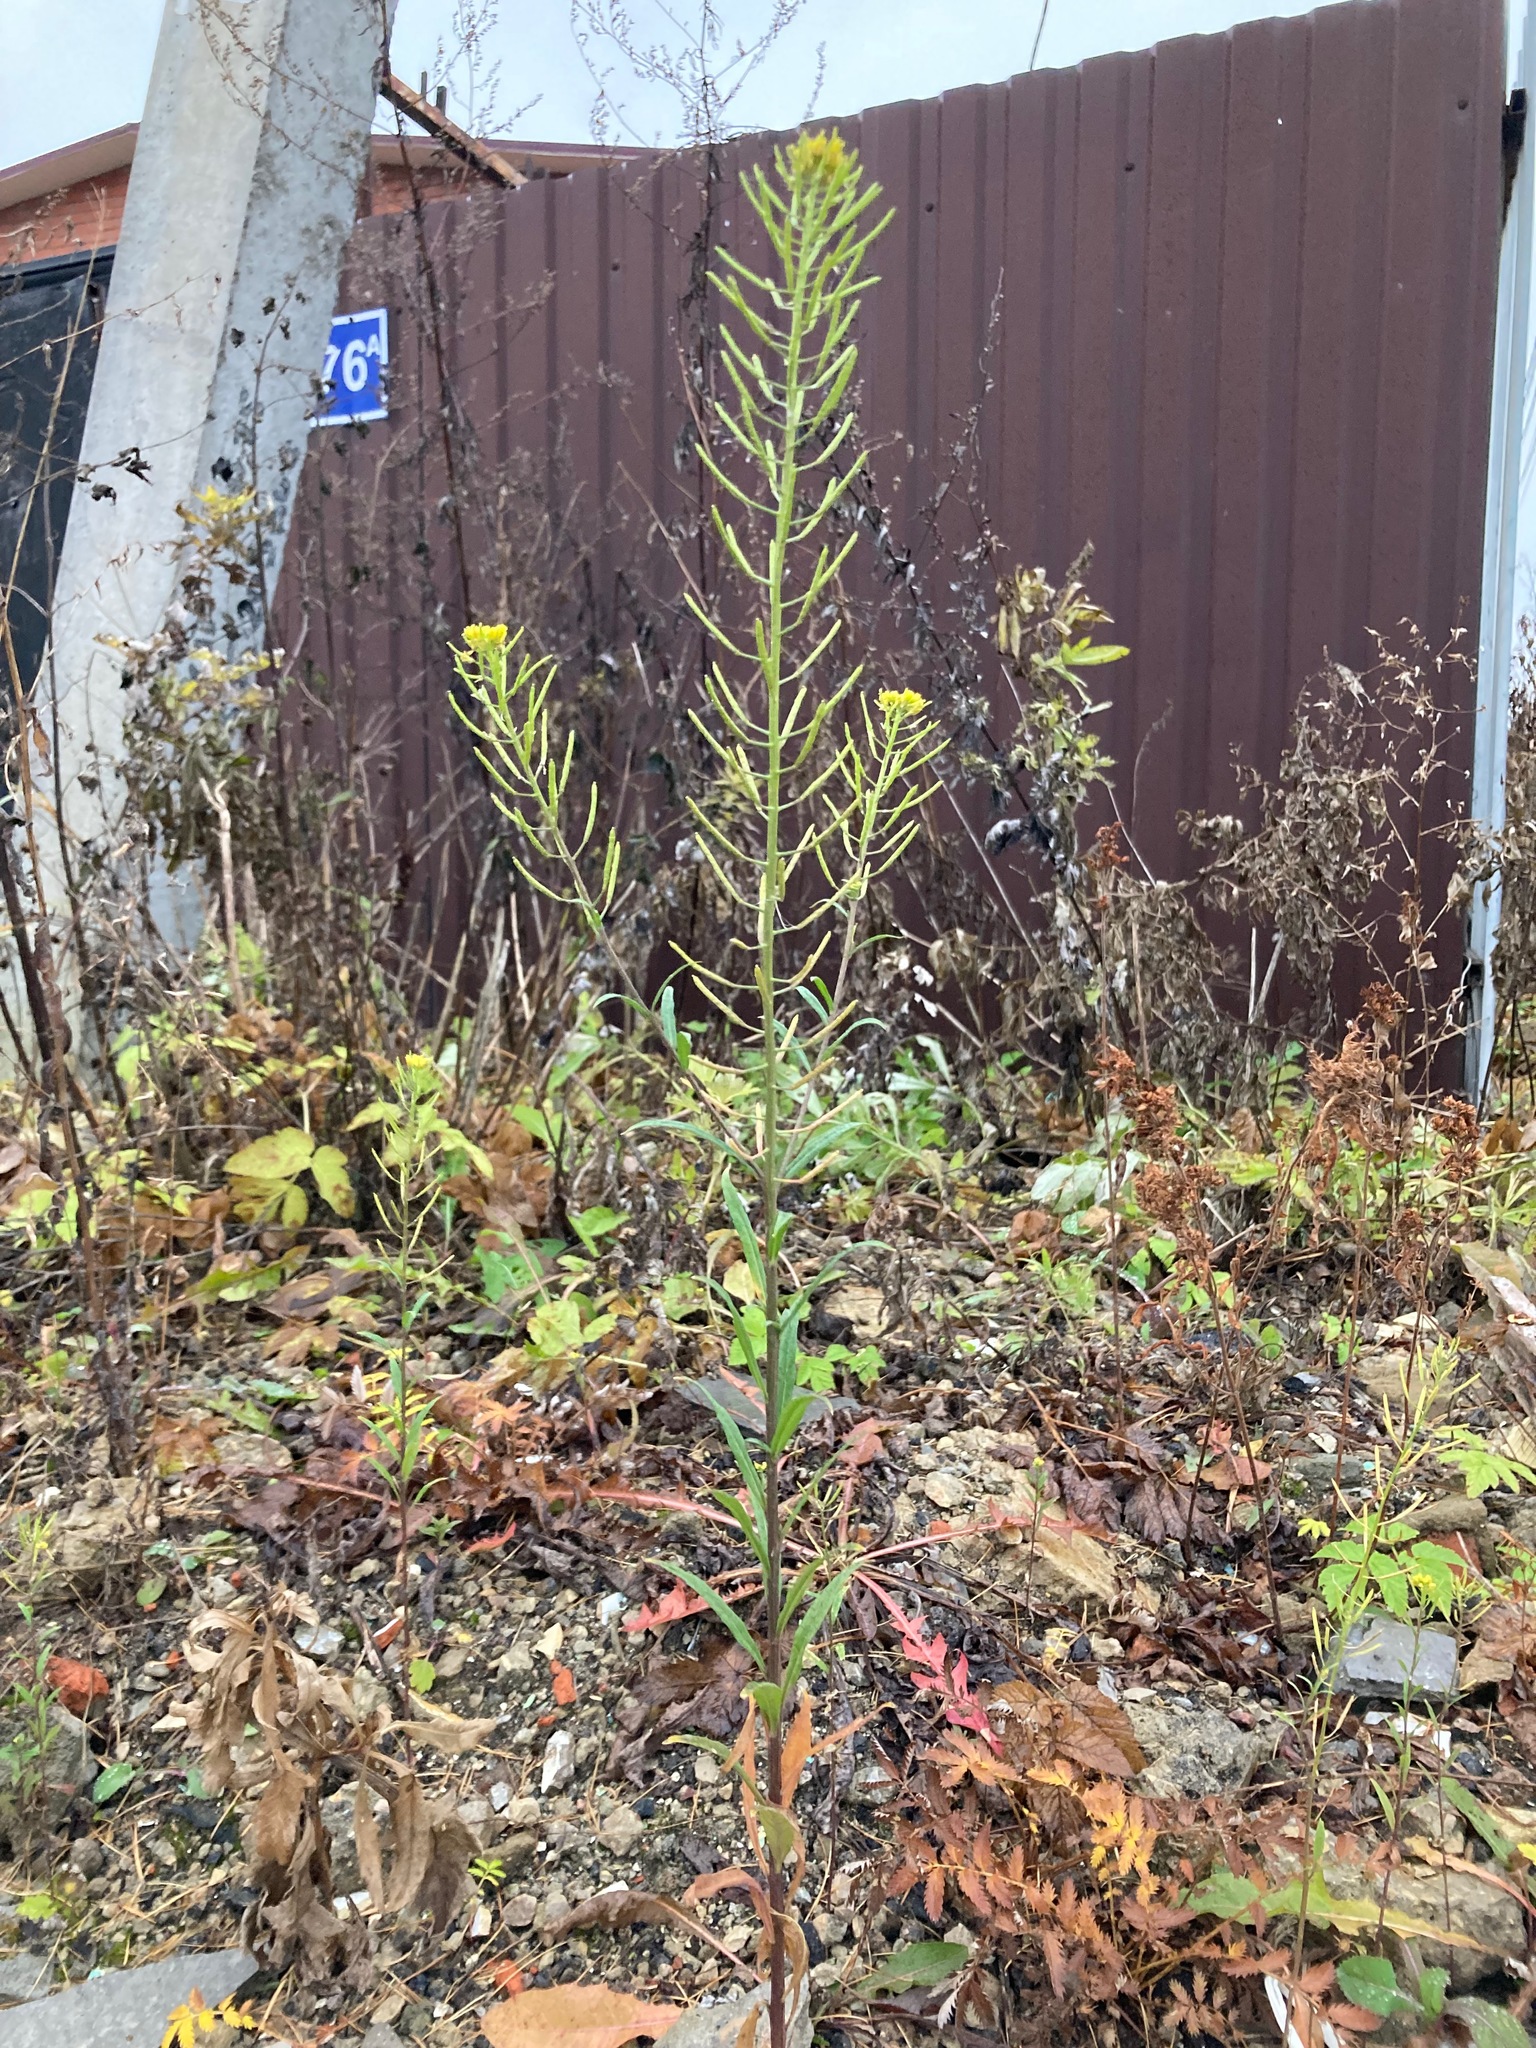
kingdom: Plantae
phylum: Tracheophyta
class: Magnoliopsida
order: Brassicales
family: Brassicaceae
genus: Erysimum
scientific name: Erysimum cheiranthoides
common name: Treacle mustard
